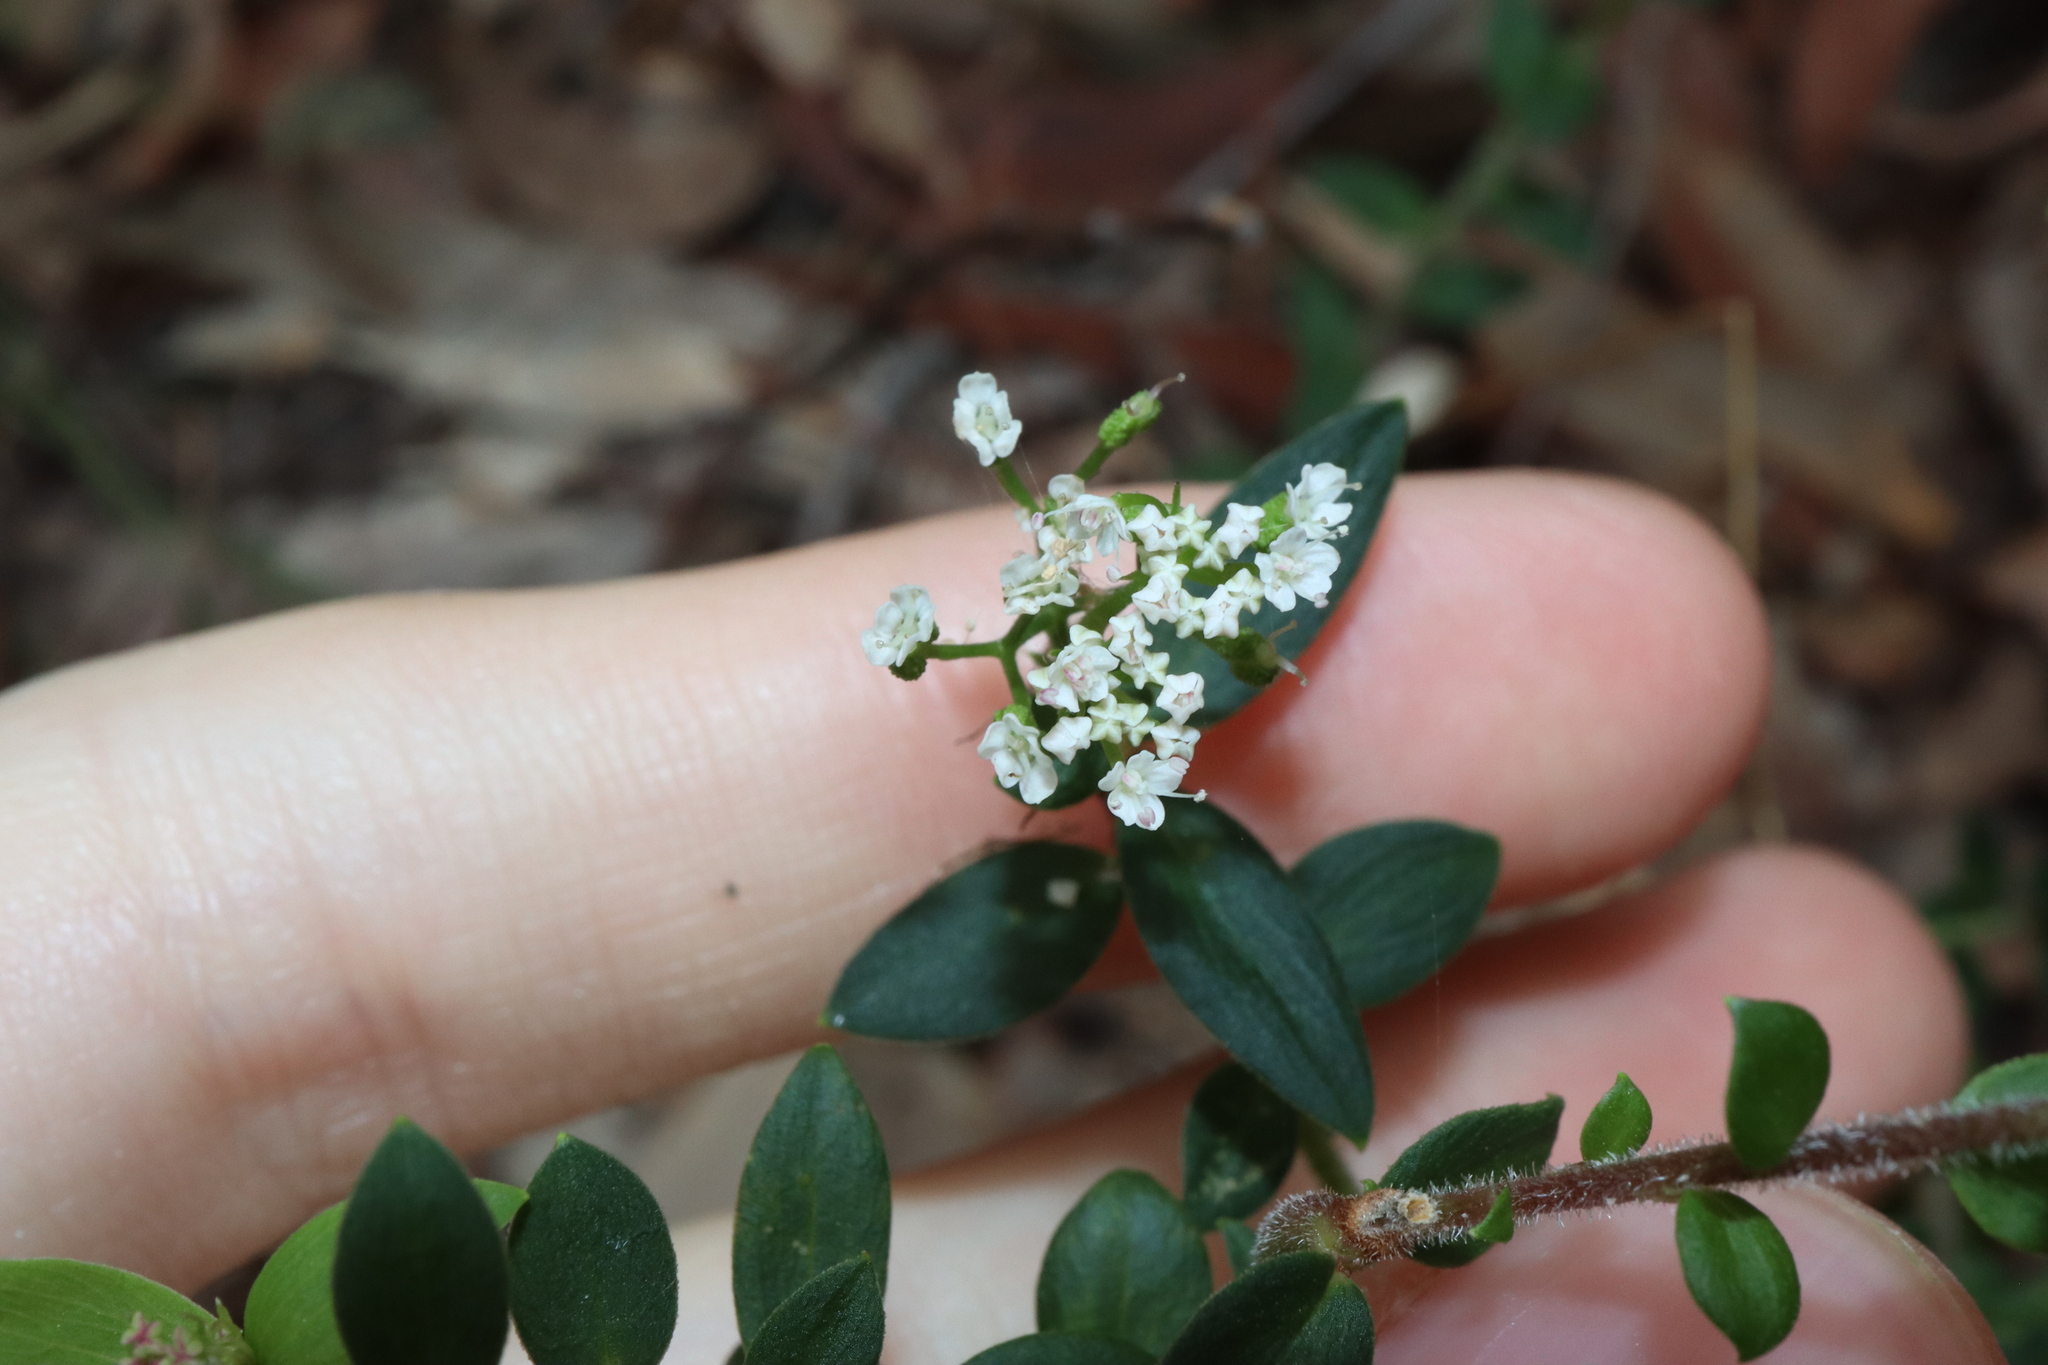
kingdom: Plantae
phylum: Tracheophyta
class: Magnoliopsida
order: Apiales
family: Apiaceae
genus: Platysace
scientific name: Platysace lanceolata
